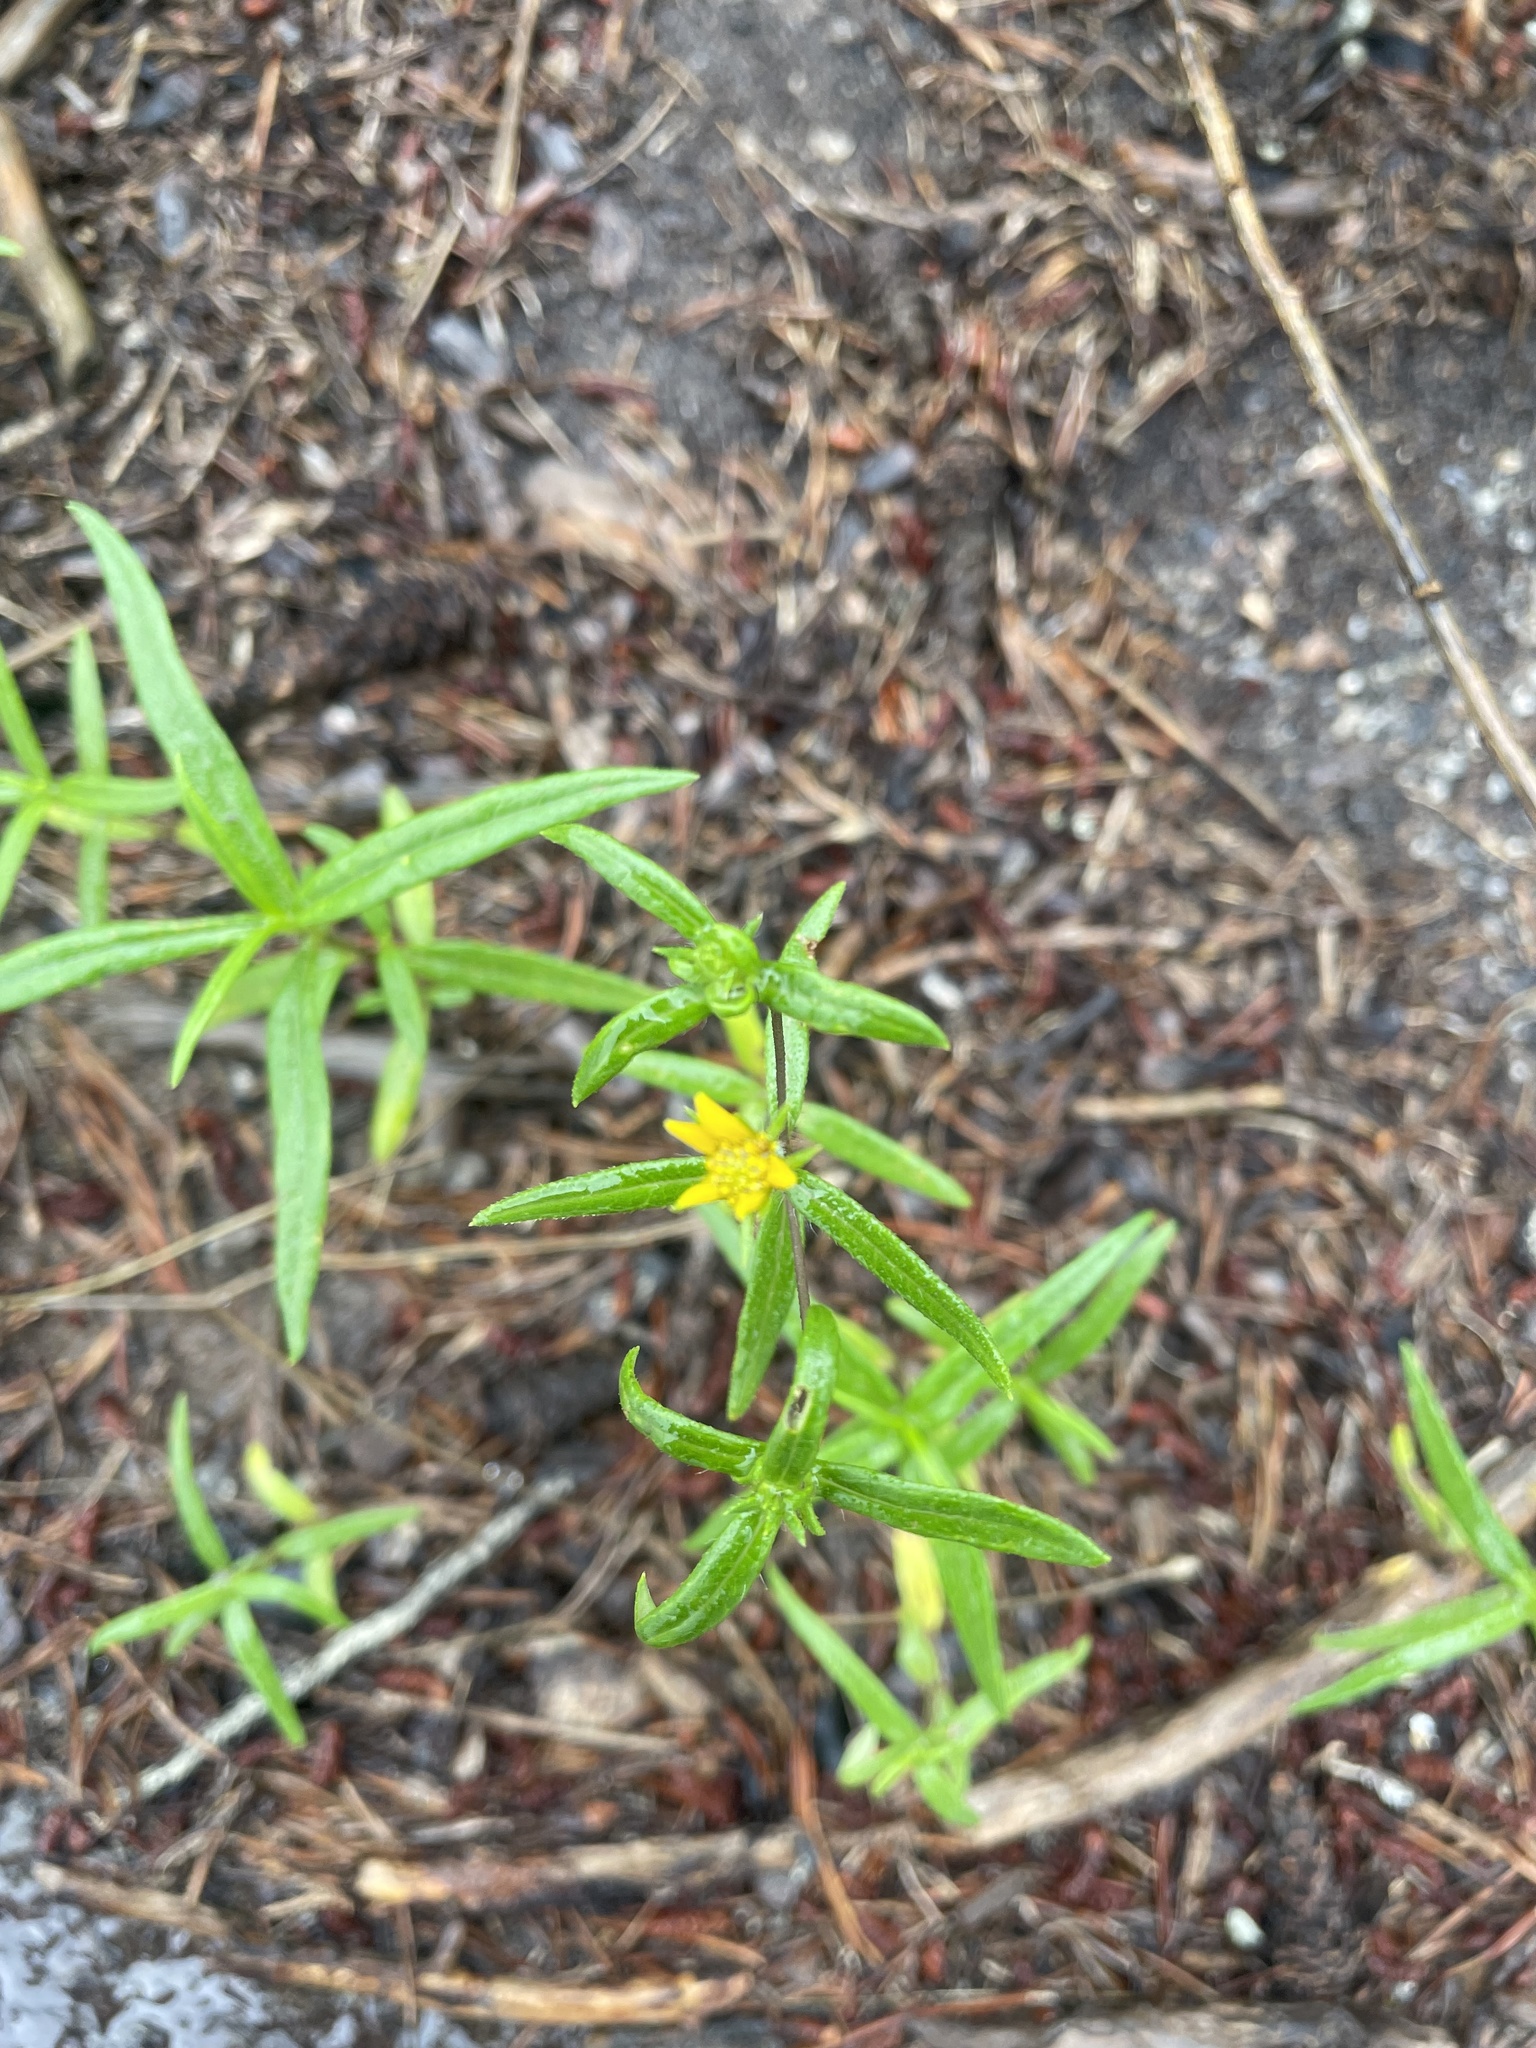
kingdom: Plantae
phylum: Tracheophyta
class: Magnoliopsida
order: Asterales
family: Asteraceae
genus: Helianthus
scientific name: Helianthus porteri
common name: Porter's sunflower
